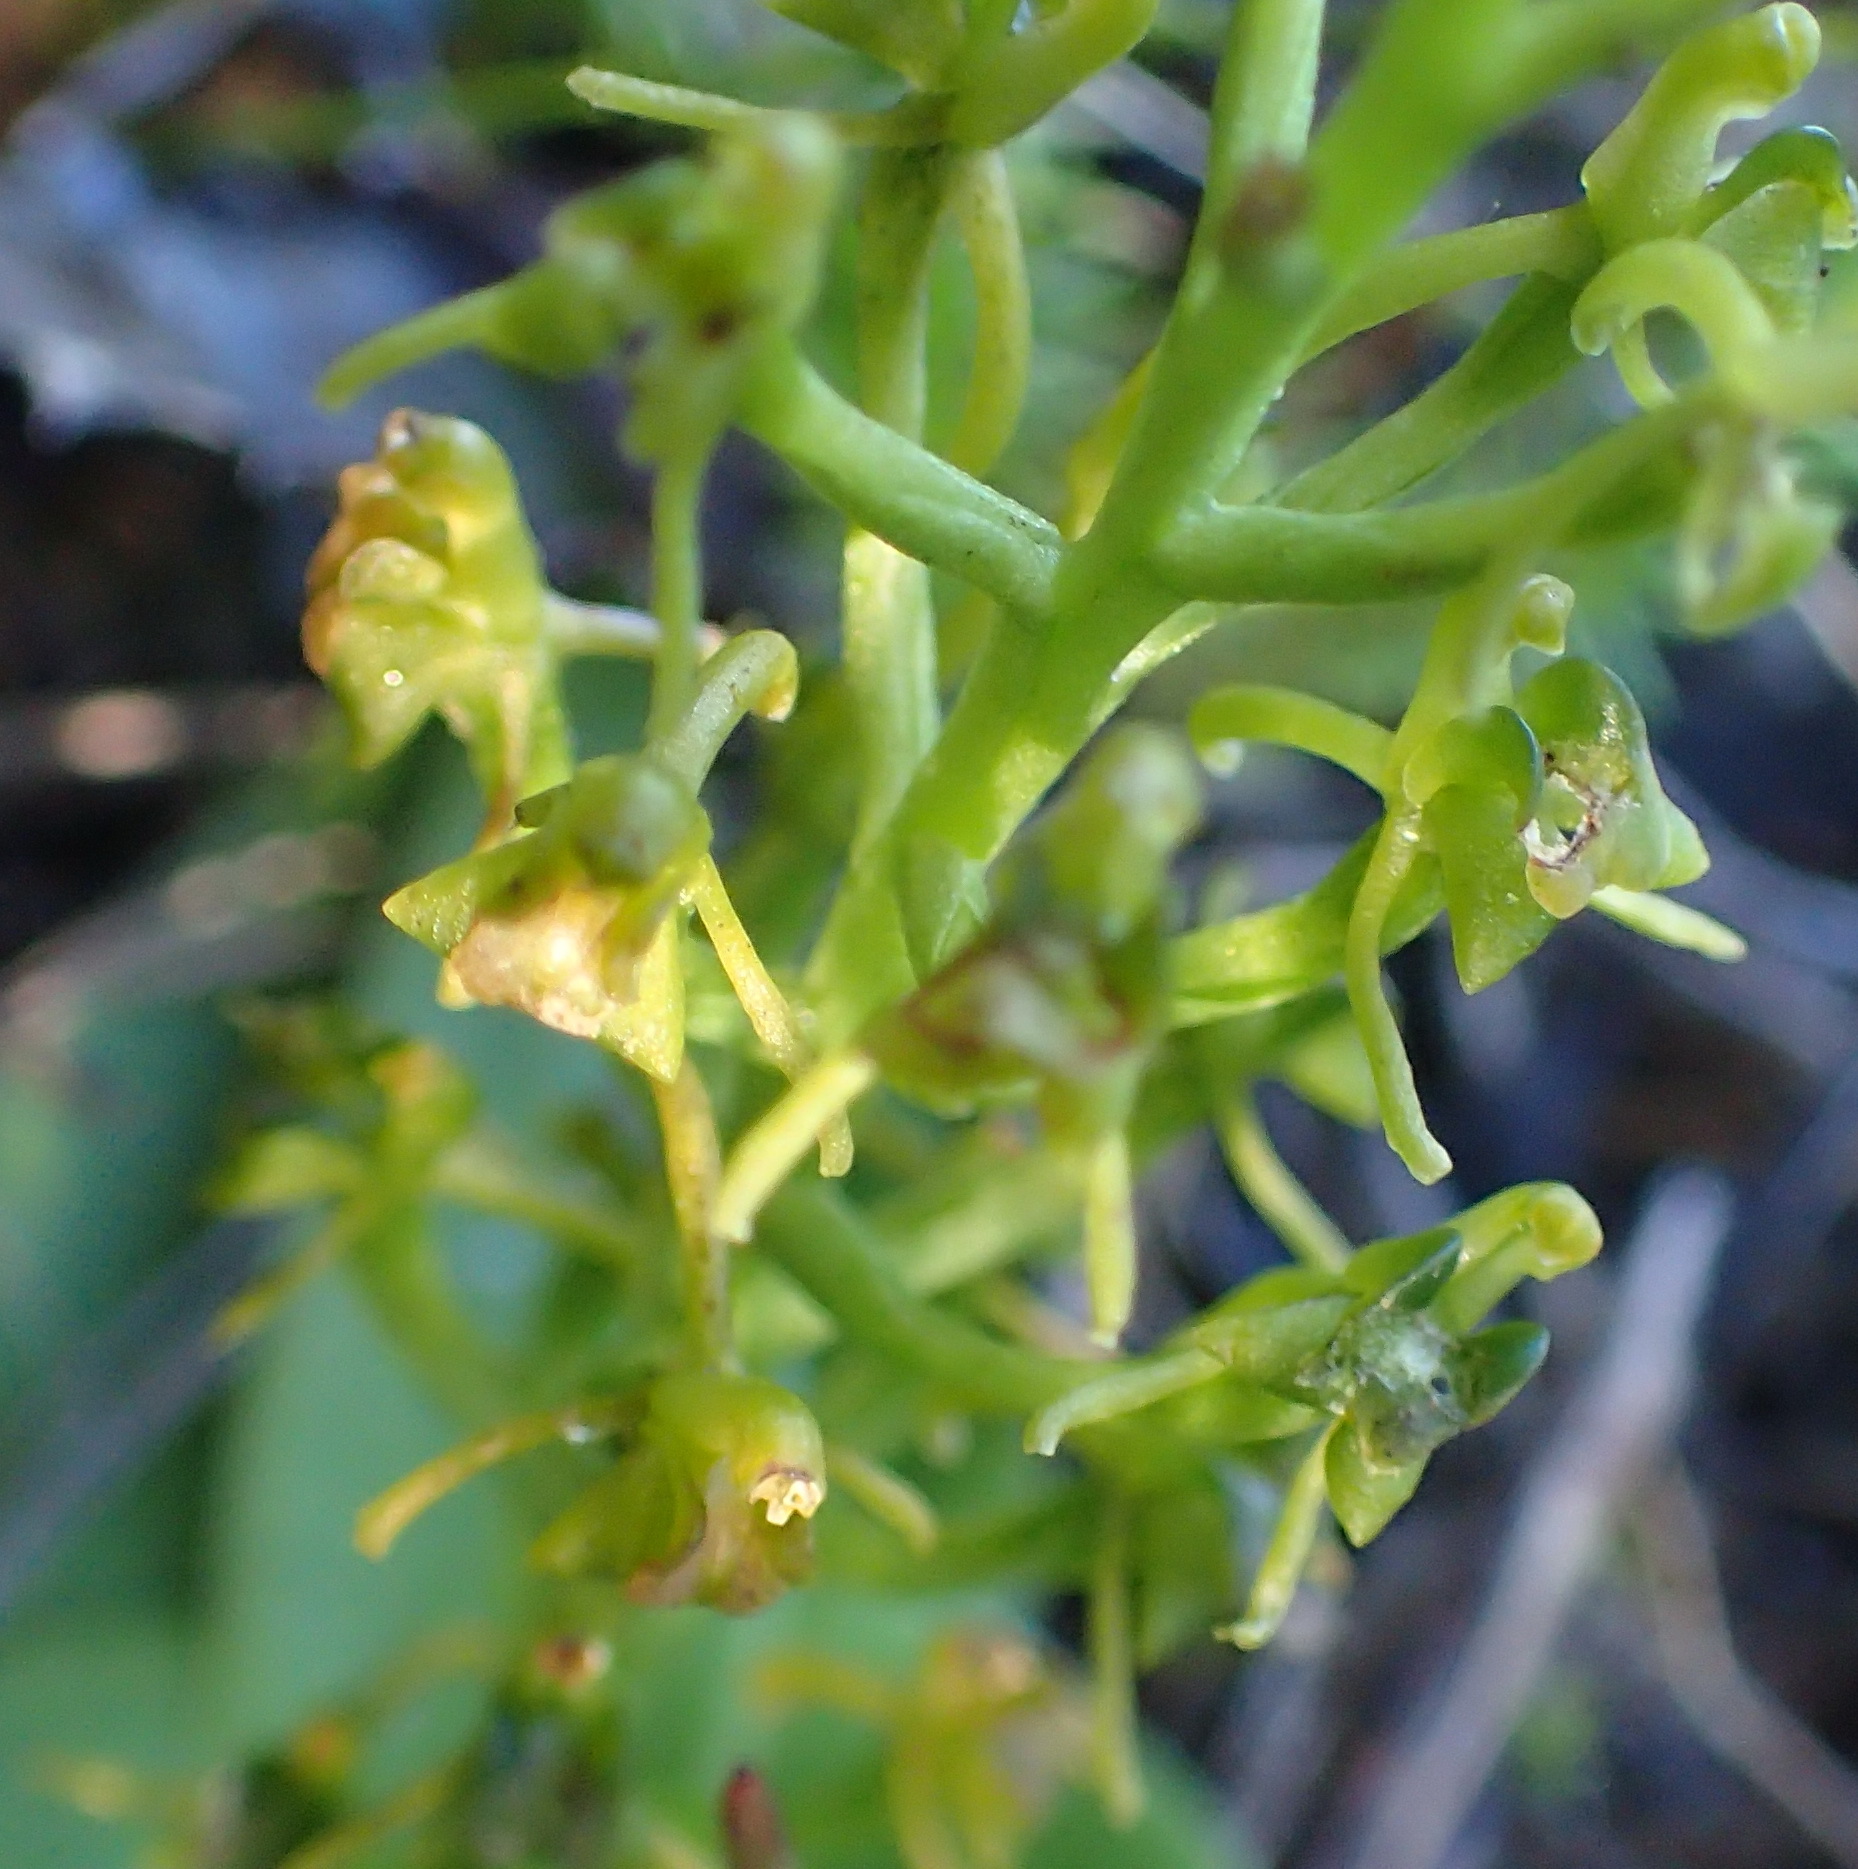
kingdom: Plantae
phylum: Tracheophyta
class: Liliopsida
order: Asparagales
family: Orchidaceae
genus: Liparis
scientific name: Liparis capensis
